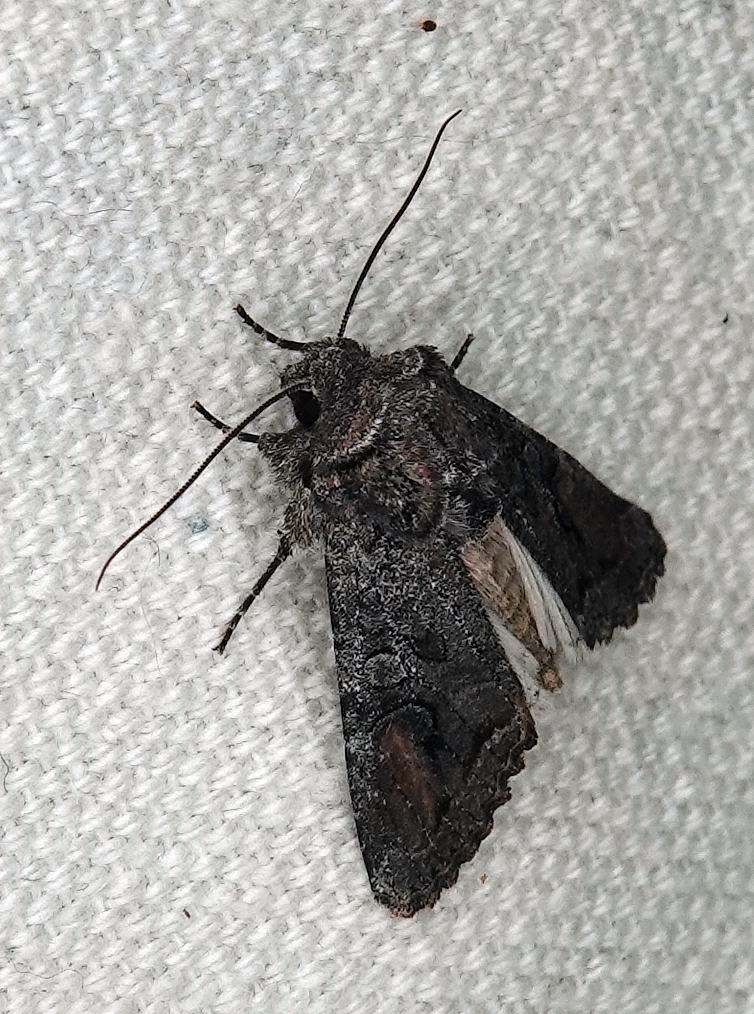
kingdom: Animalia
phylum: Arthropoda
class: Insecta
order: Lepidoptera
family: Noctuidae
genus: Egira
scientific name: Egira perlubens
